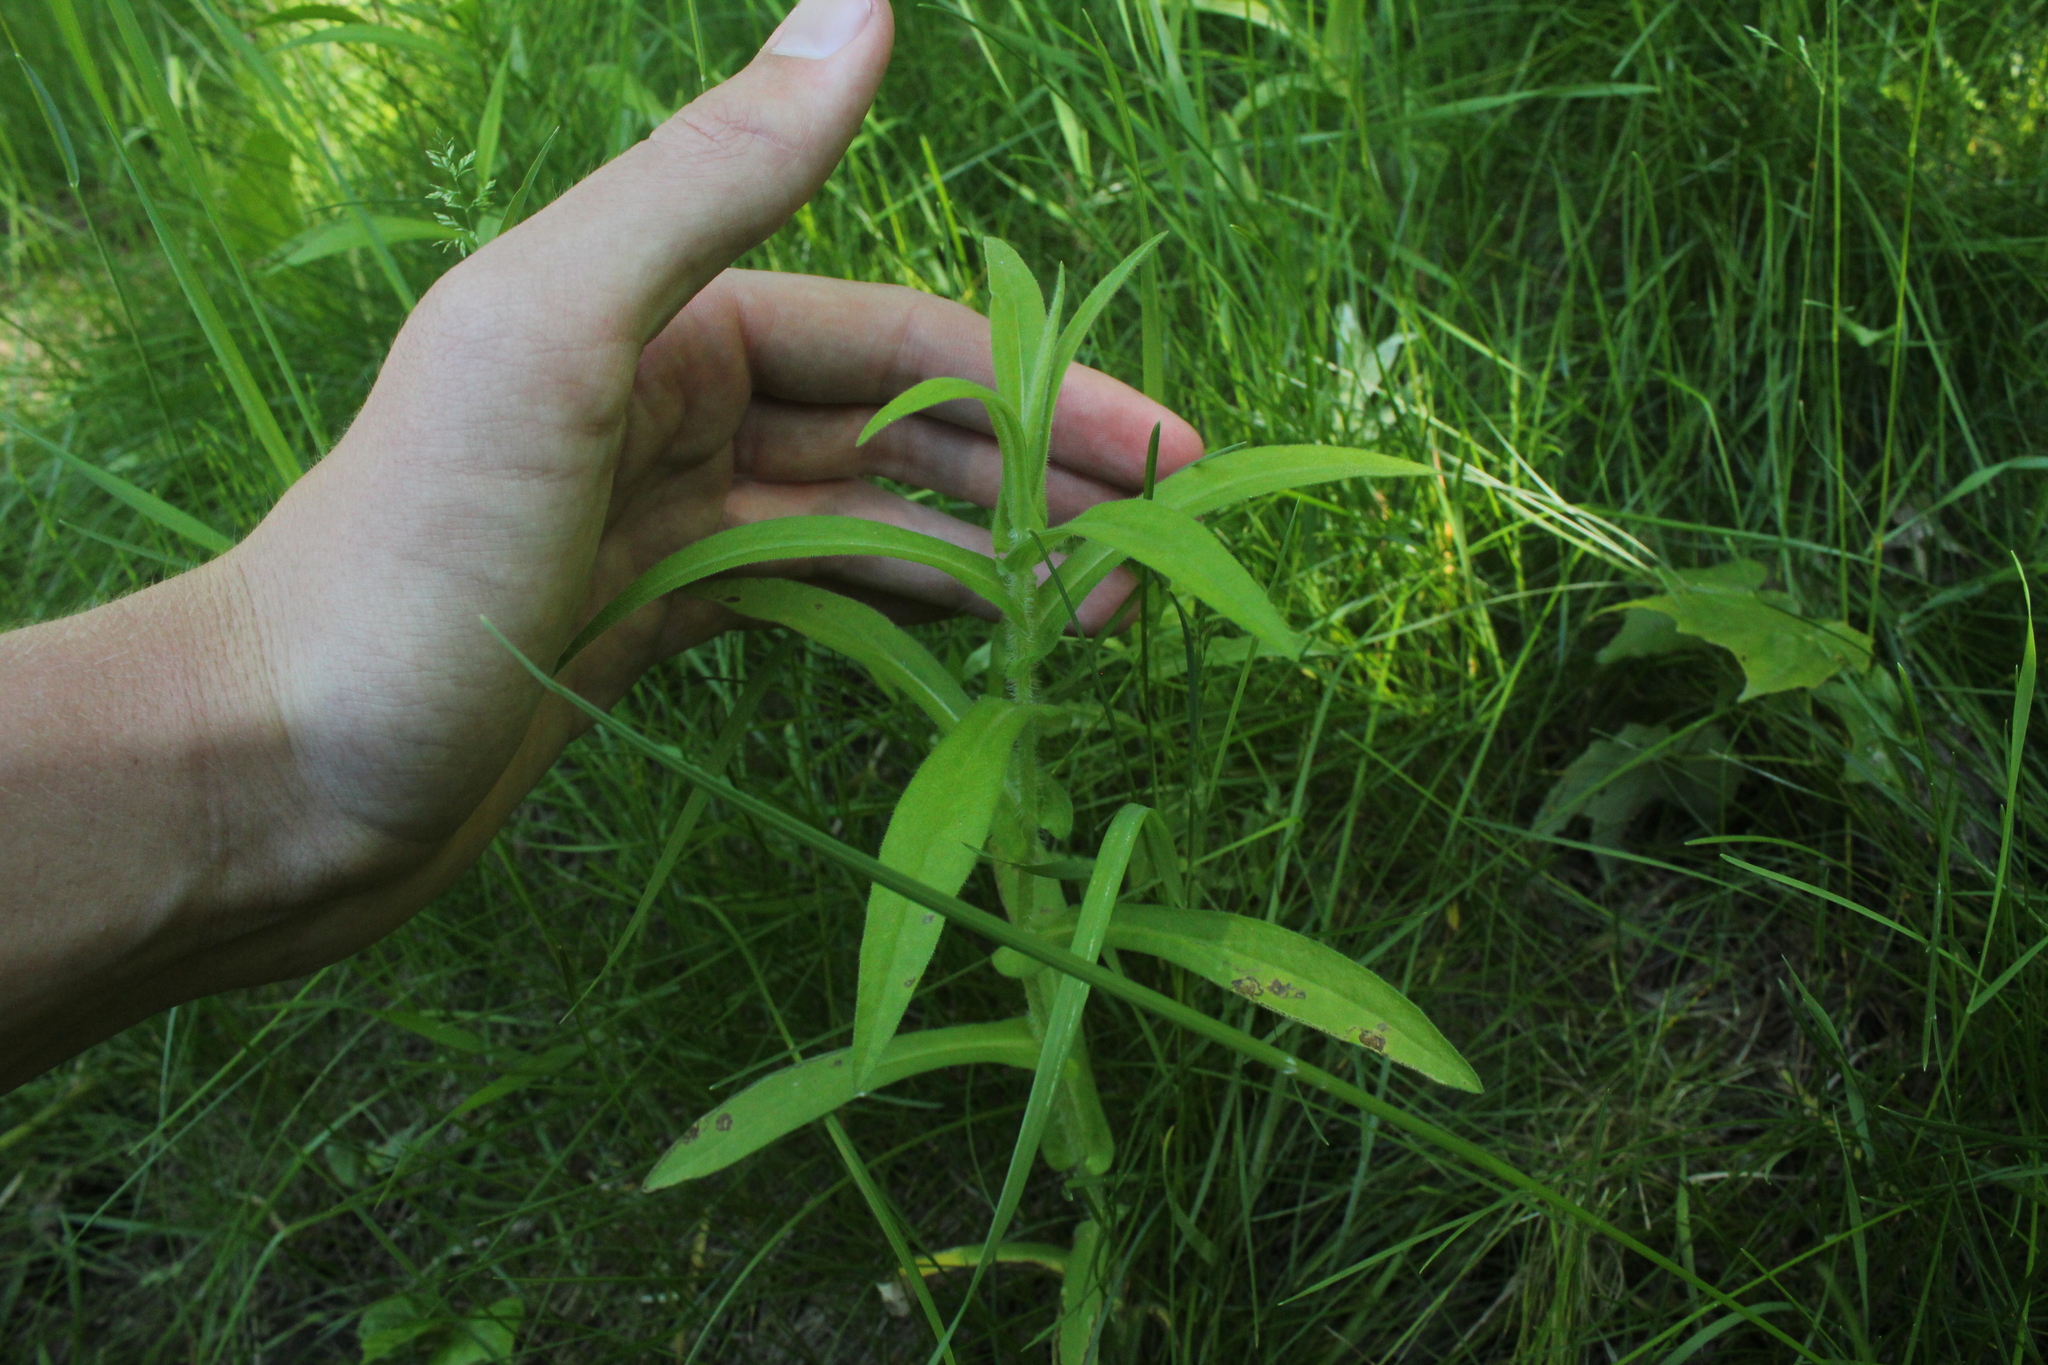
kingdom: Plantae
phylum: Tracheophyta
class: Magnoliopsida
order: Asterales
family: Asteraceae
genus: Symphyotrichum
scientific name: Symphyotrichum novae-angliae
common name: Michaelmas daisy
